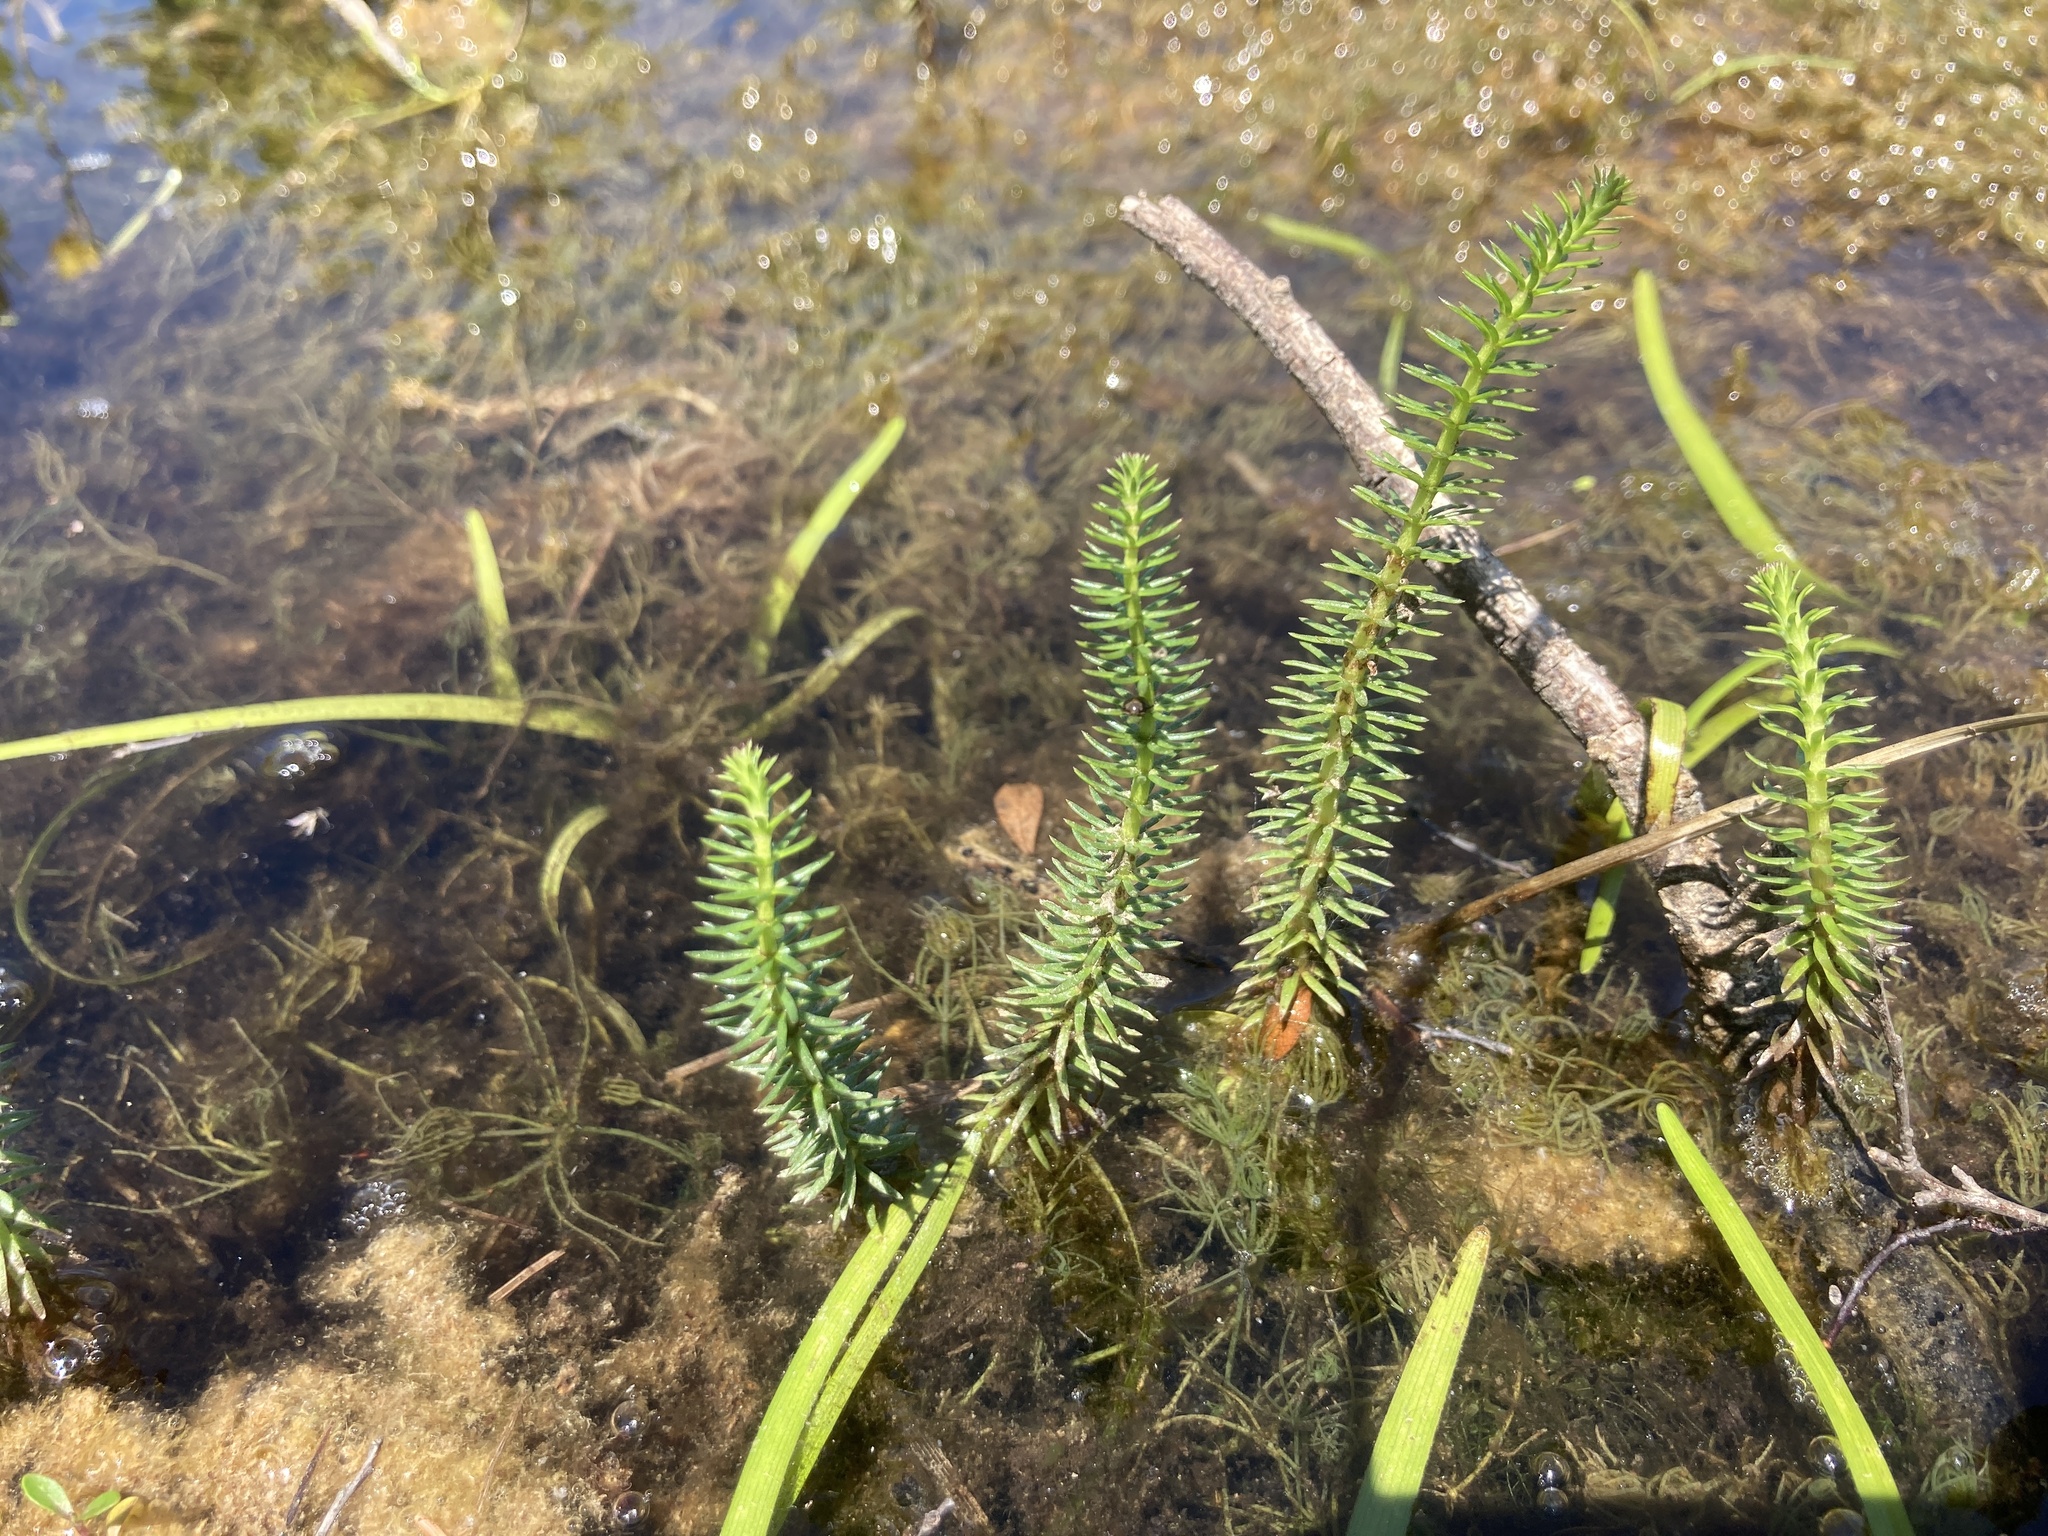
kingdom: Plantae
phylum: Tracheophyta
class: Magnoliopsida
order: Lamiales
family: Plantaginaceae
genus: Hippuris
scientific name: Hippuris vulgaris
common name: Mare's-tail
